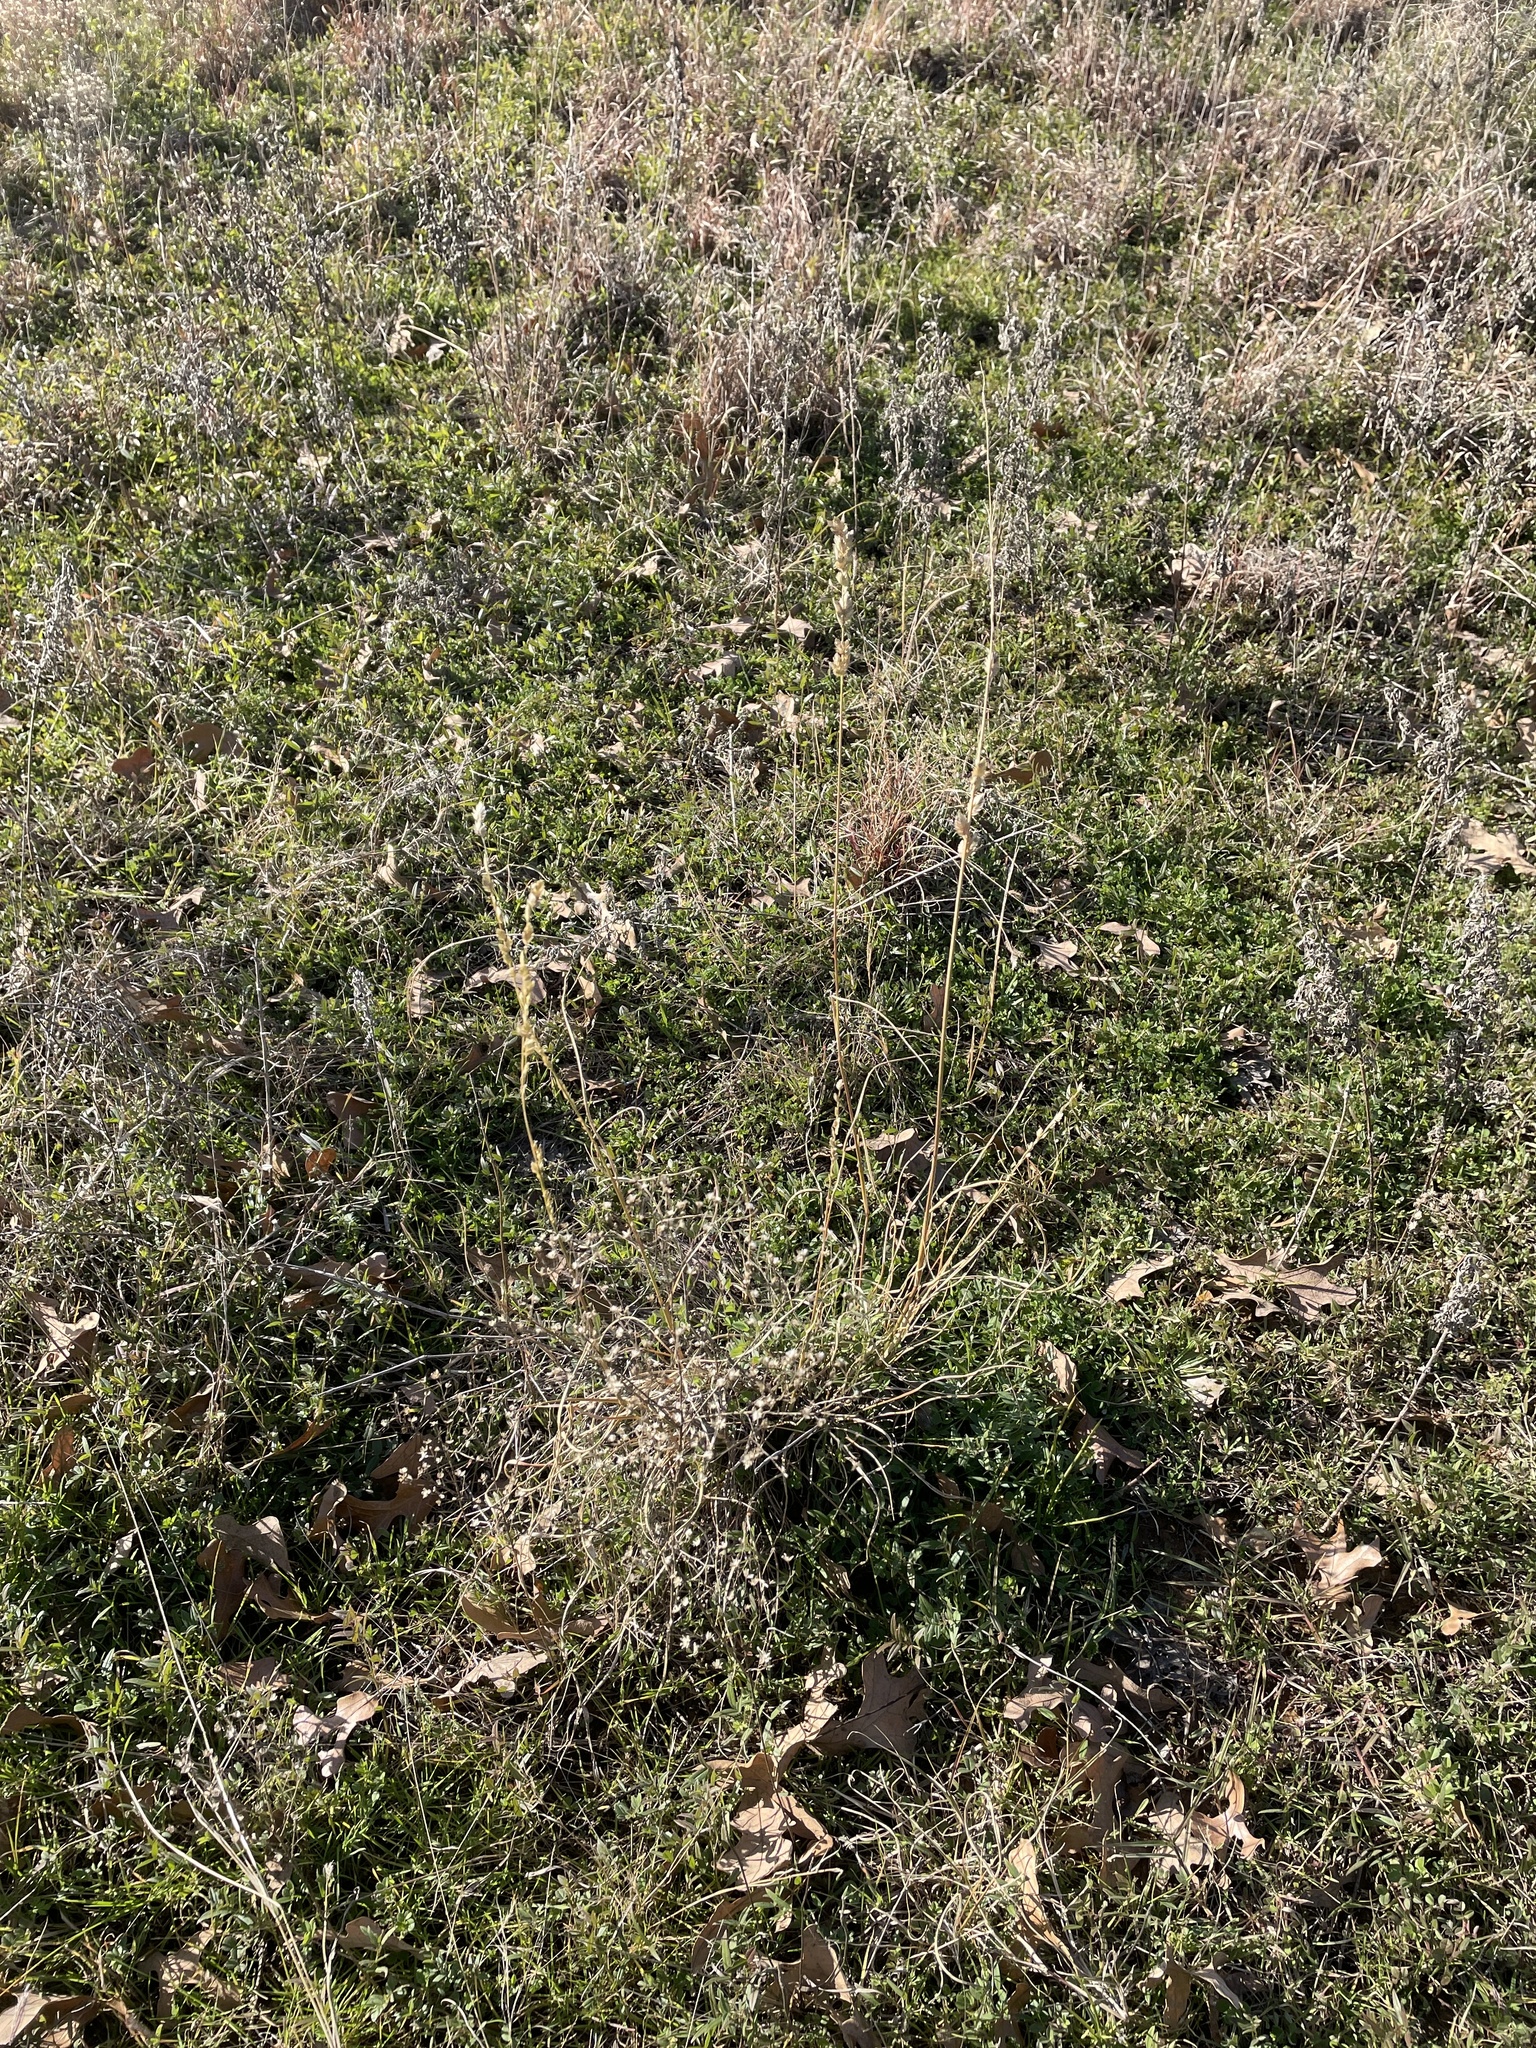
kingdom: Plantae
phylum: Tracheophyta
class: Liliopsida
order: Poales
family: Poaceae
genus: Eragrostis
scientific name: Eragrostis superba
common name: Wilman lovegrass
